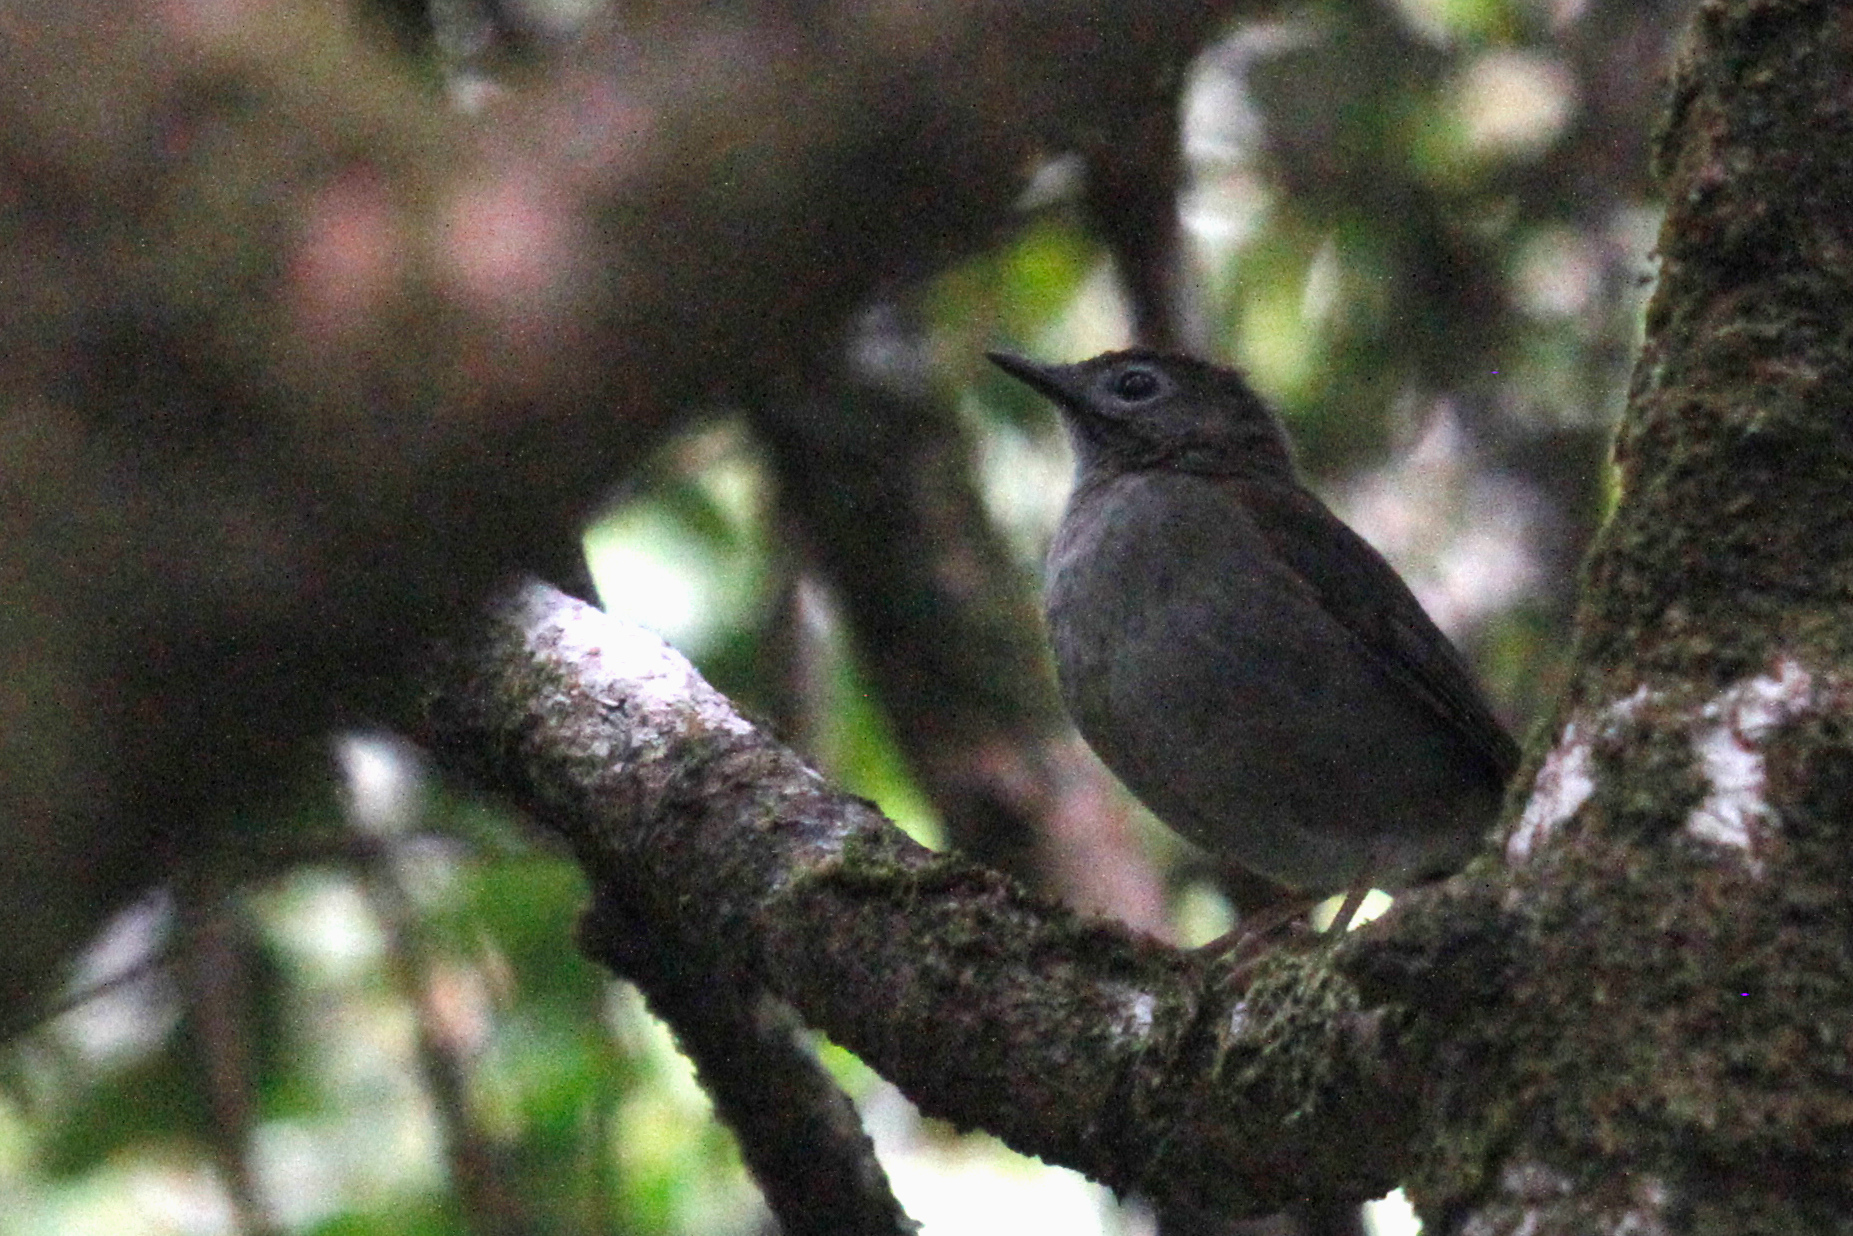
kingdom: Animalia
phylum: Chordata
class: Aves
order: Passeriformes
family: Turdidae
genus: Myadestes
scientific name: Myadestes palmeri
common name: Puaiohi
